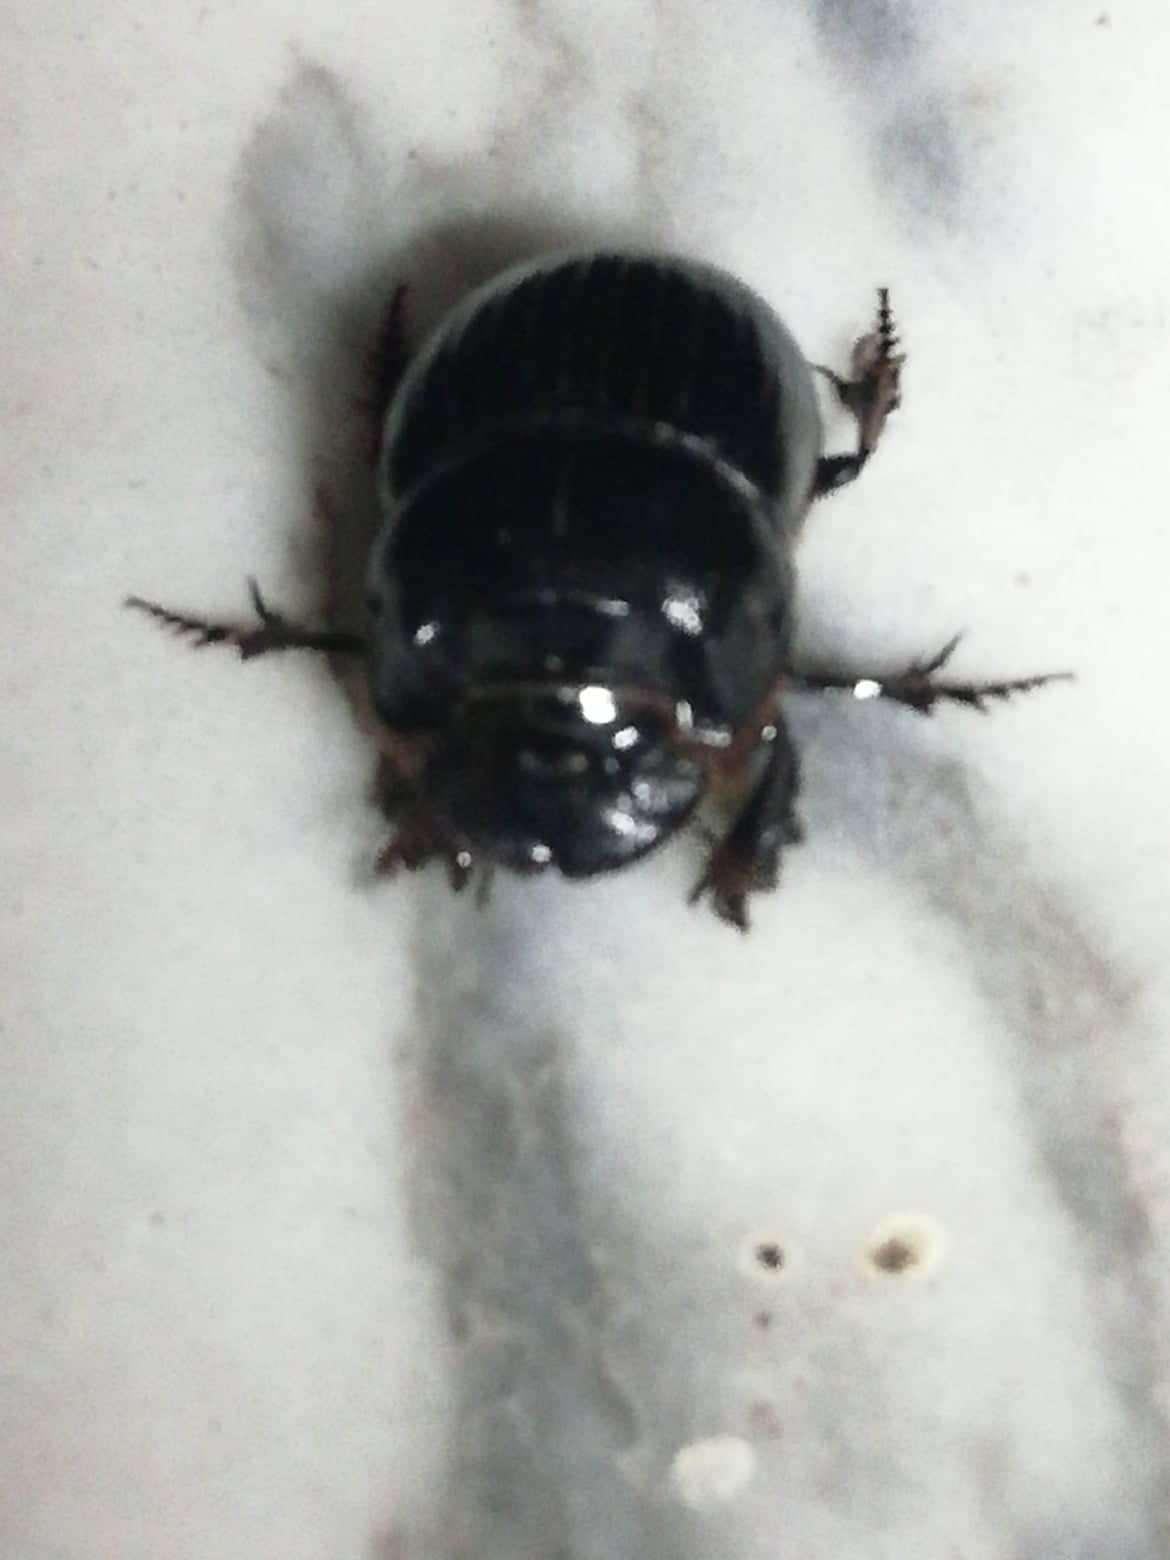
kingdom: Animalia
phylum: Arthropoda
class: Insecta
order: Coleoptera
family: Scarabaeidae
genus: Copris
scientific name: Copris lunaris
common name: Horned dung beetle
